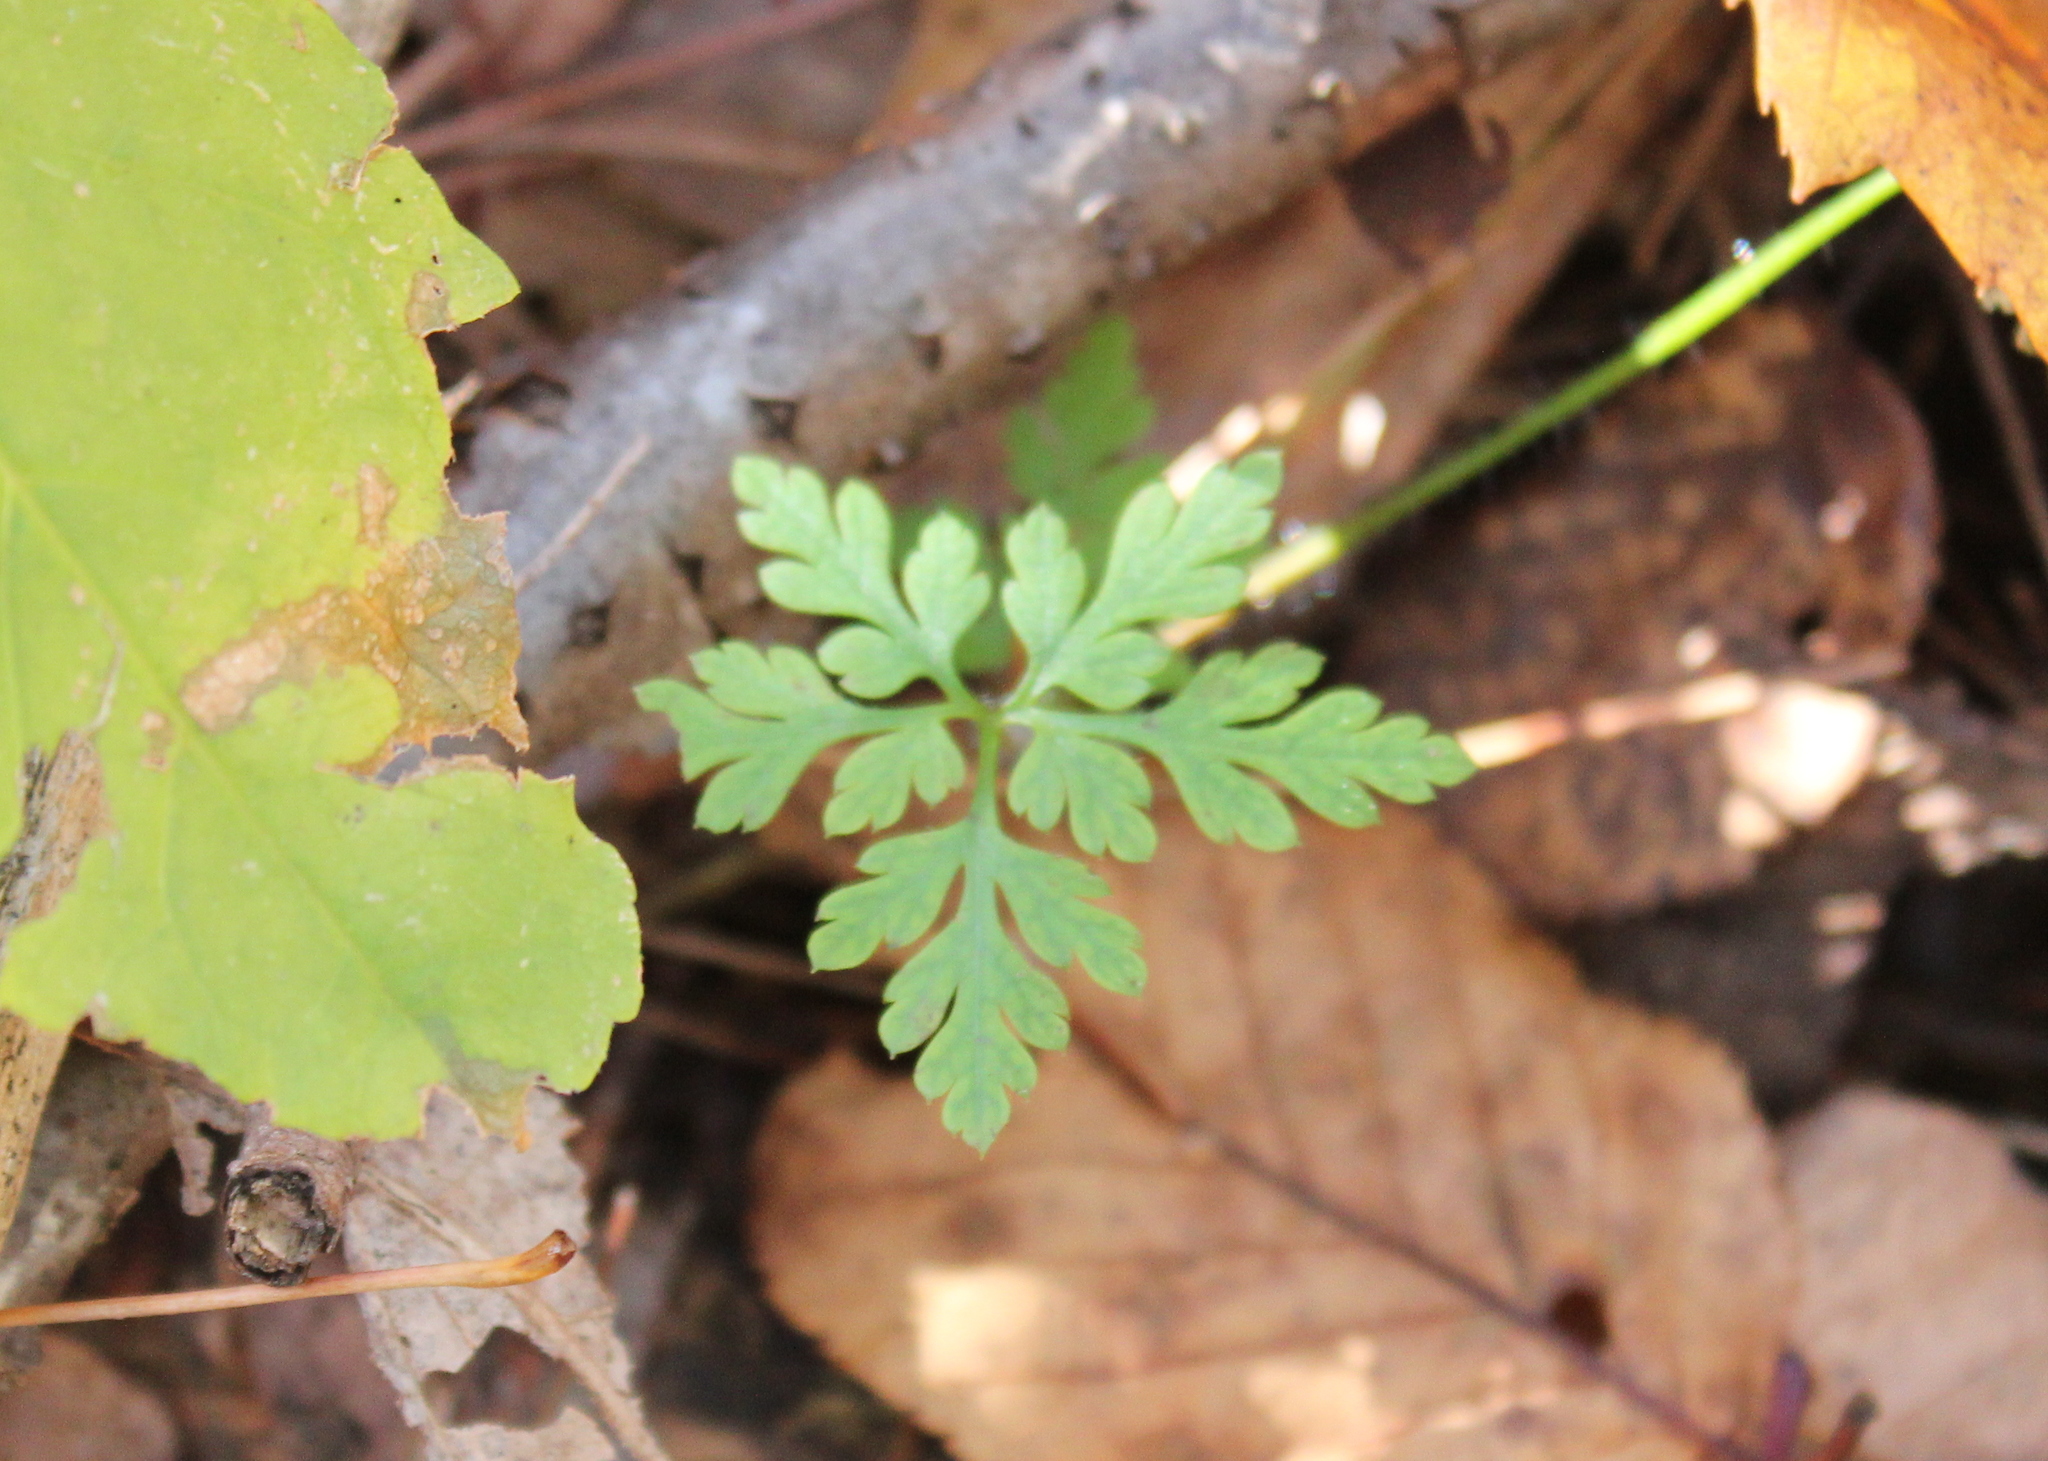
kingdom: Plantae
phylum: Tracheophyta
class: Magnoliopsida
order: Geraniales
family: Geraniaceae
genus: Geranium
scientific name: Geranium robertianum
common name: Herb-robert
